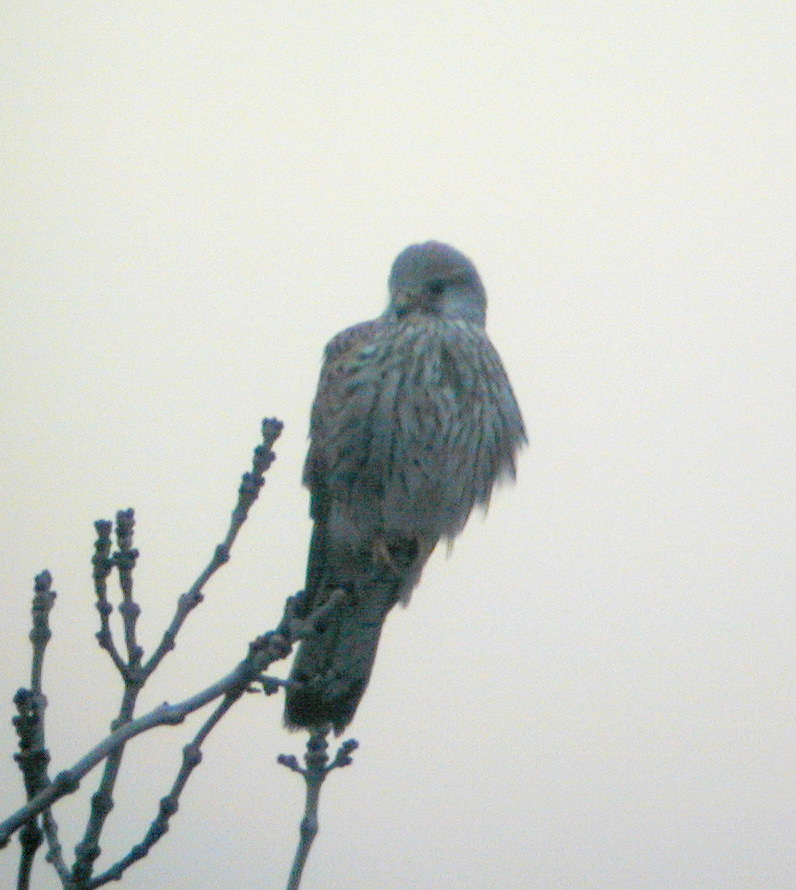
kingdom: Animalia
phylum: Chordata
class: Aves
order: Falconiformes
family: Falconidae
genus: Falco
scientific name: Falco tinnunculus
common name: Common kestrel
